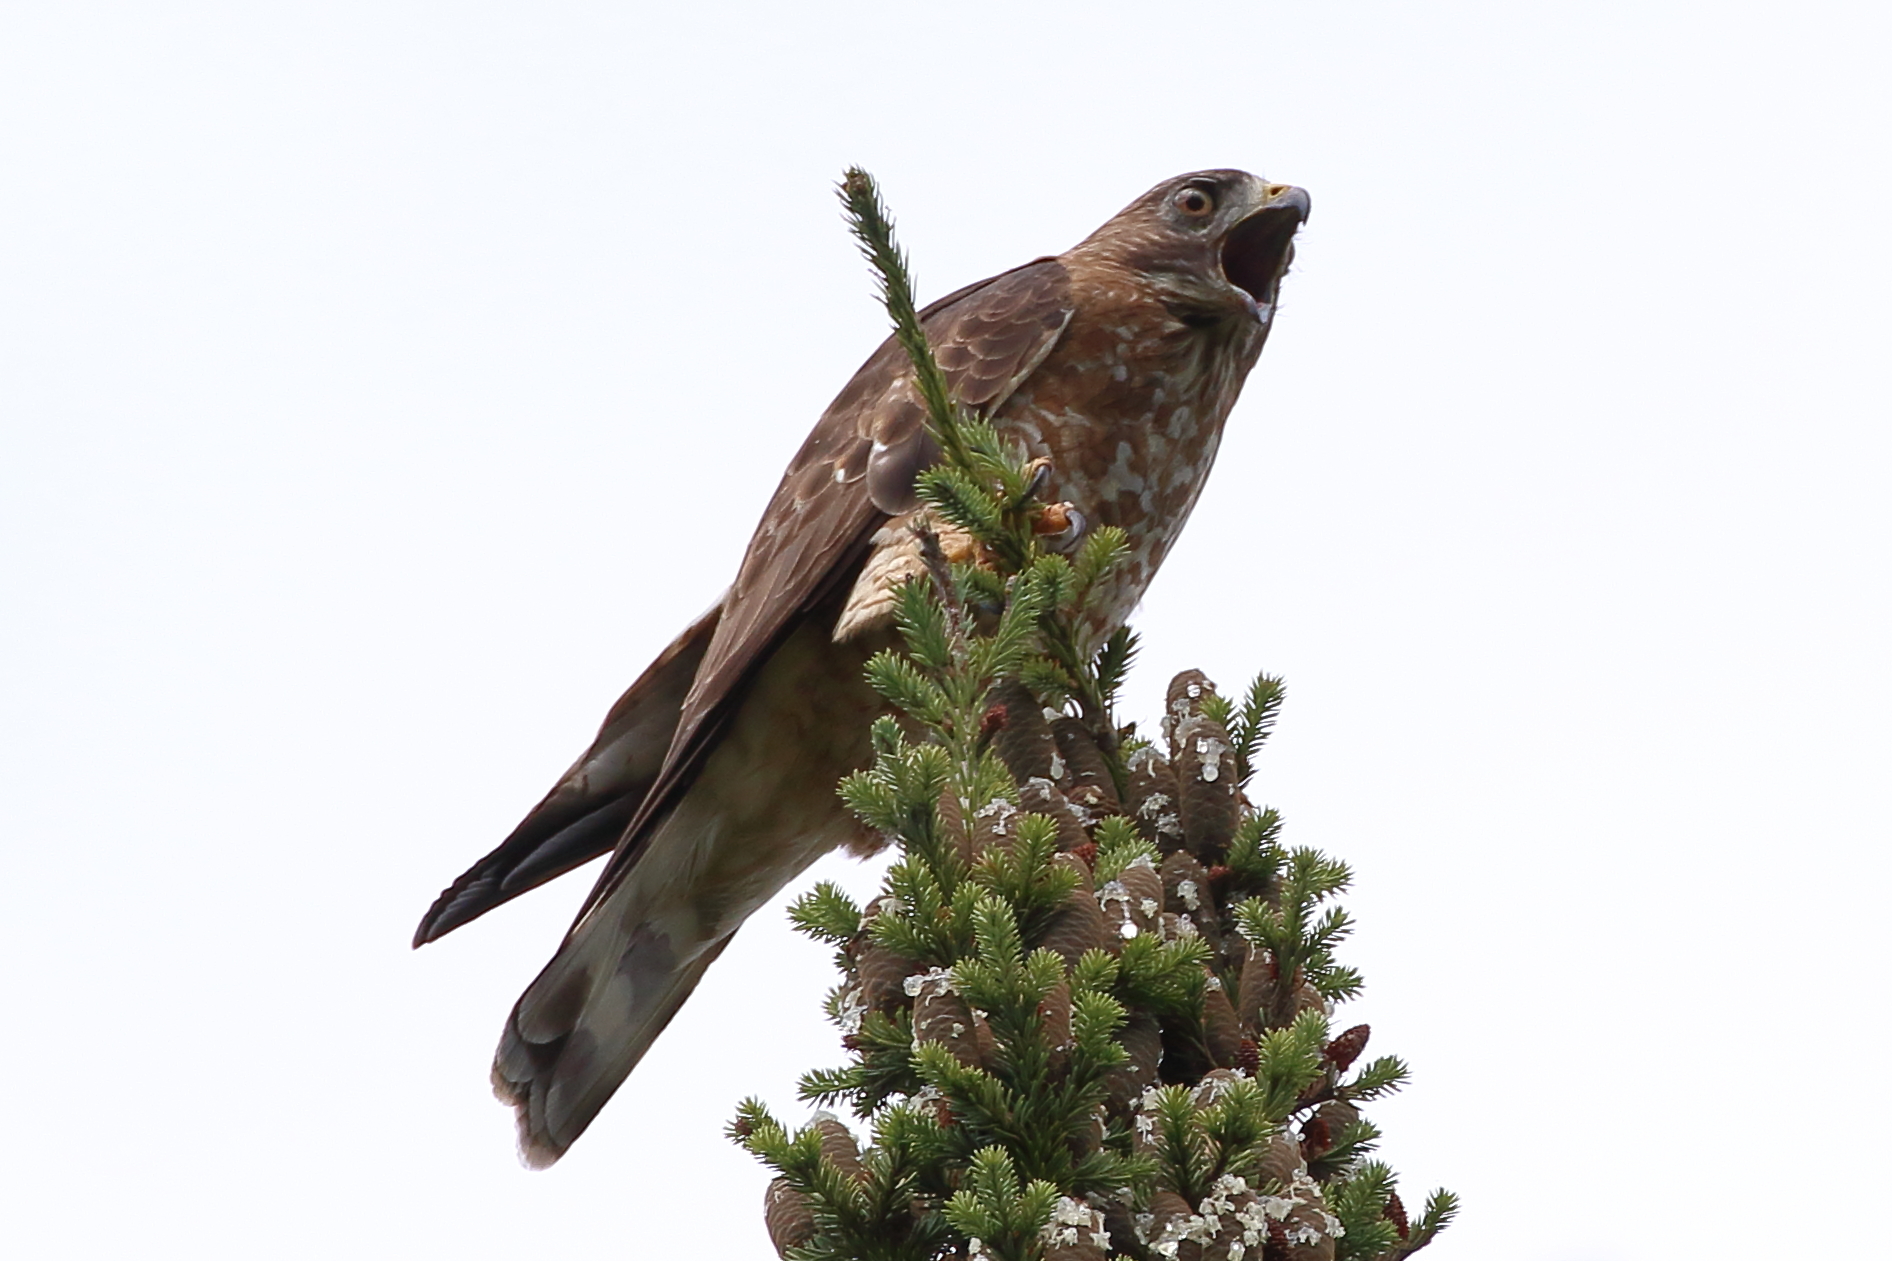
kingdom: Animalia
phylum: Chordata
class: Aves
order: Accipitriformes
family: Accipitridae
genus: Buteo
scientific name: Buteo platypterus
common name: Broad-winged hawk
